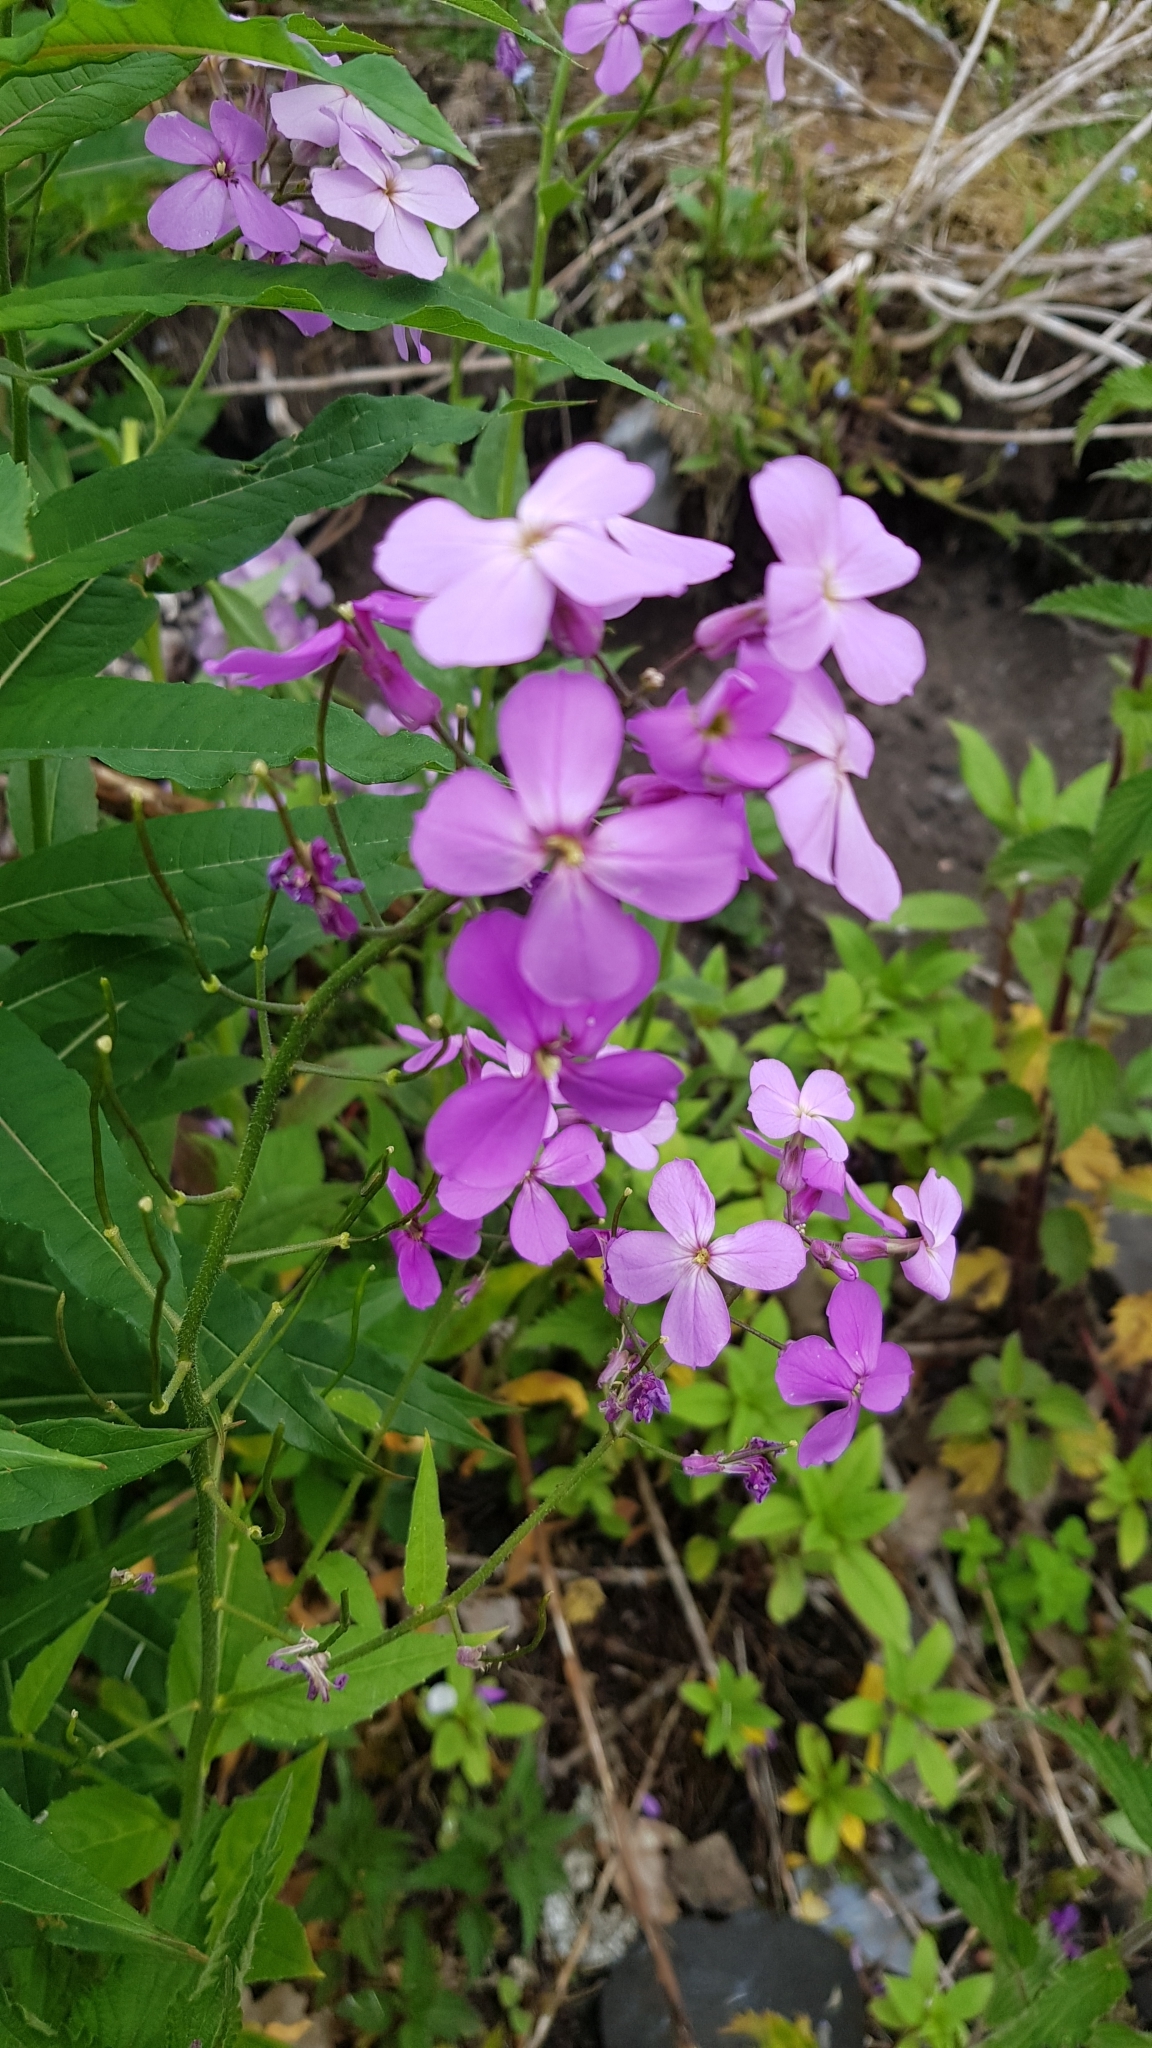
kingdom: Plantae
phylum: Tracheophyta
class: Magnoliopsida
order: Brassicales
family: Brassicaceae
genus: Hesperis
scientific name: Hesperis matronalis
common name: Dame's-violet
